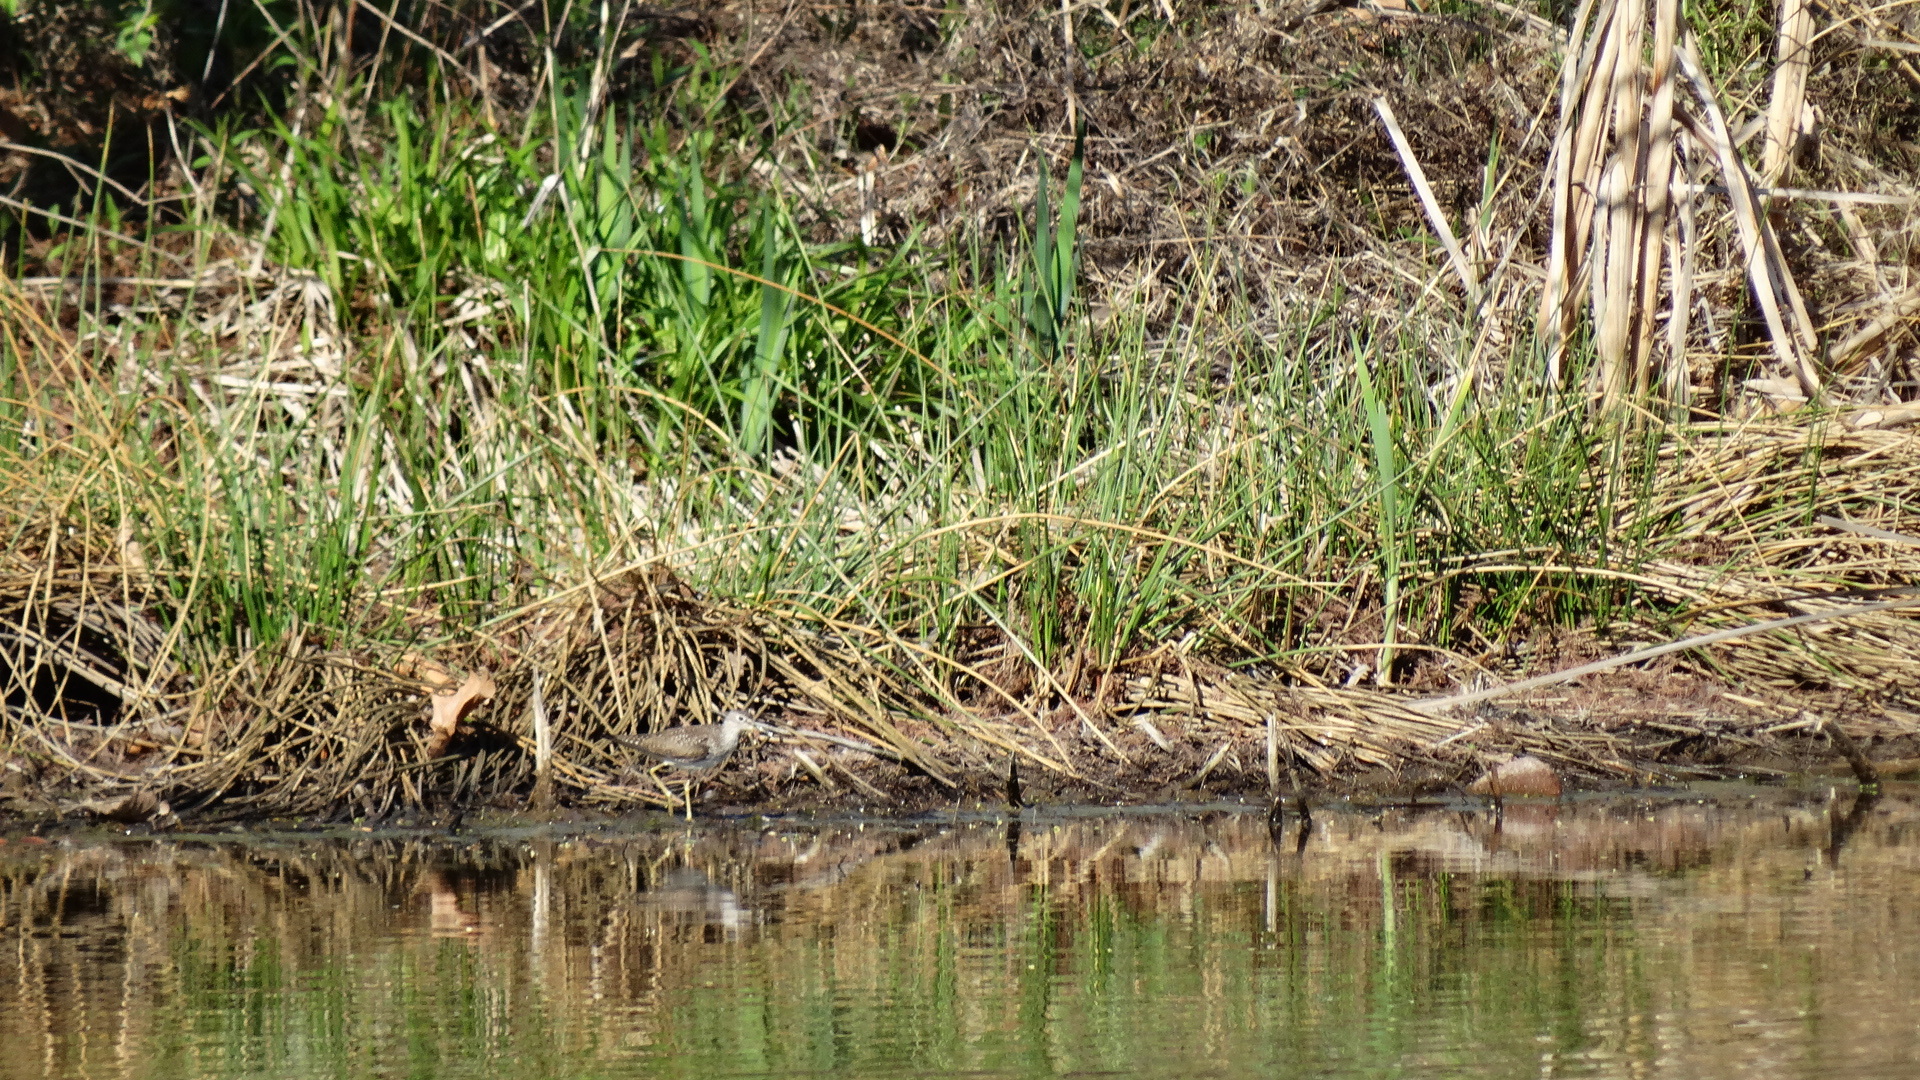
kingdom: Animalia
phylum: Chordata
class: Aves
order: Charadriiformes
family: Scolopacidae
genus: Tringa
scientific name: Tringa solitaria
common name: Solitary sandpiper
